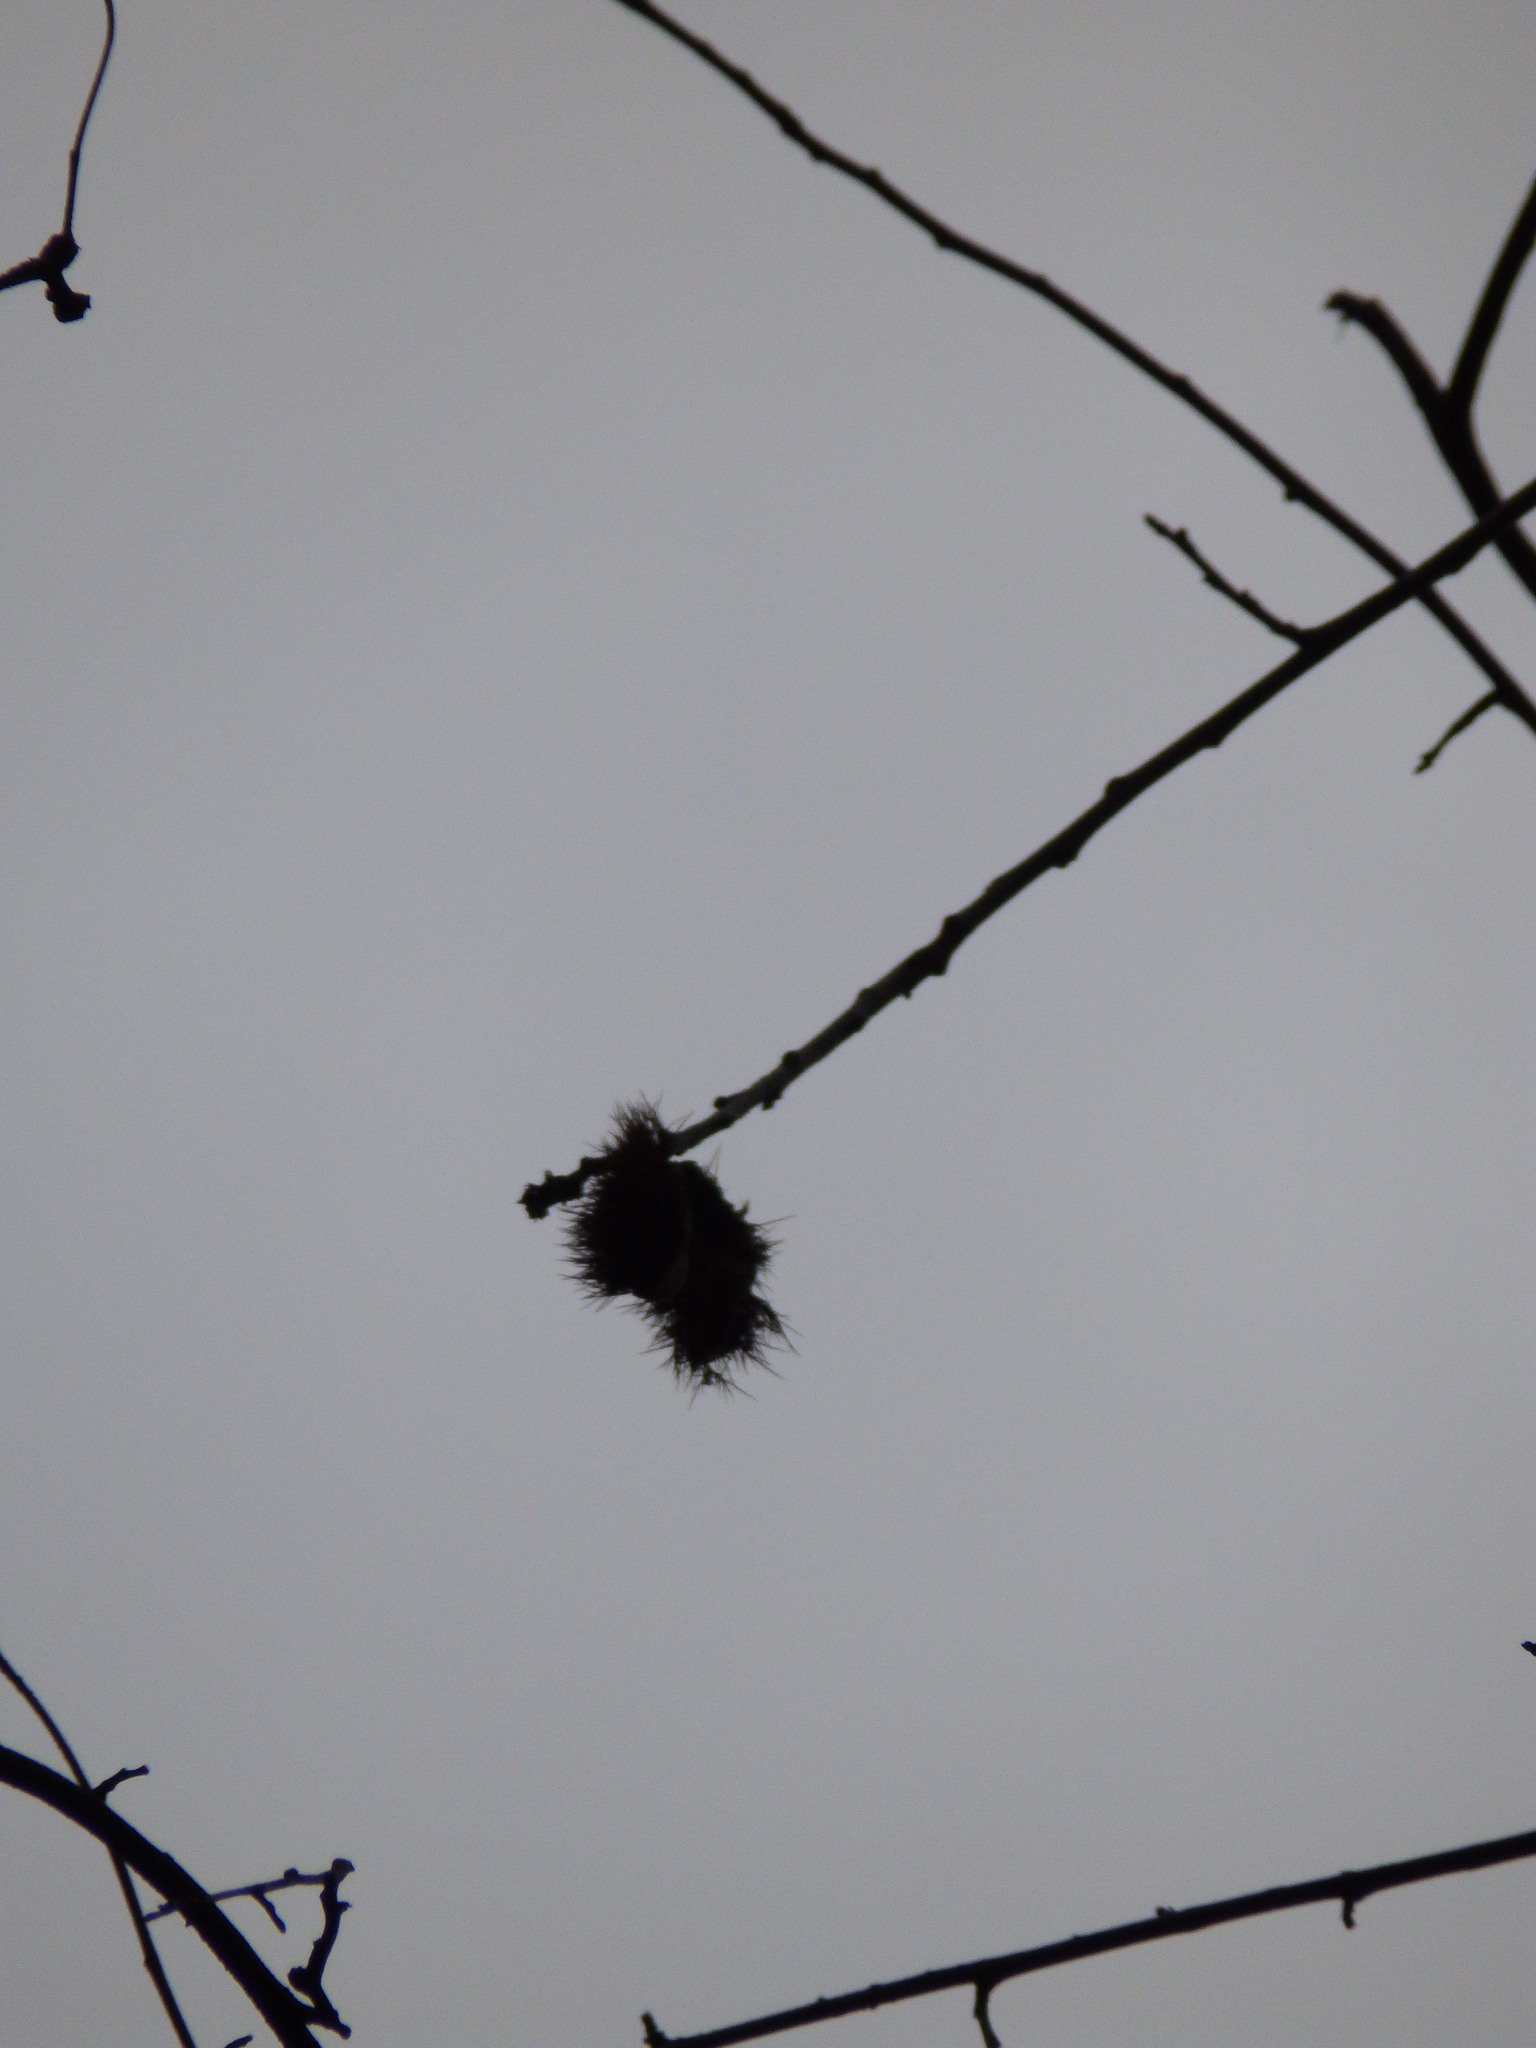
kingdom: Plantae
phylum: Tracheophyta
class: Magnoliopsida
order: Fagales
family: Fagaceae
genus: Castanea
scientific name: Castanea dentata
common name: American chestnut
